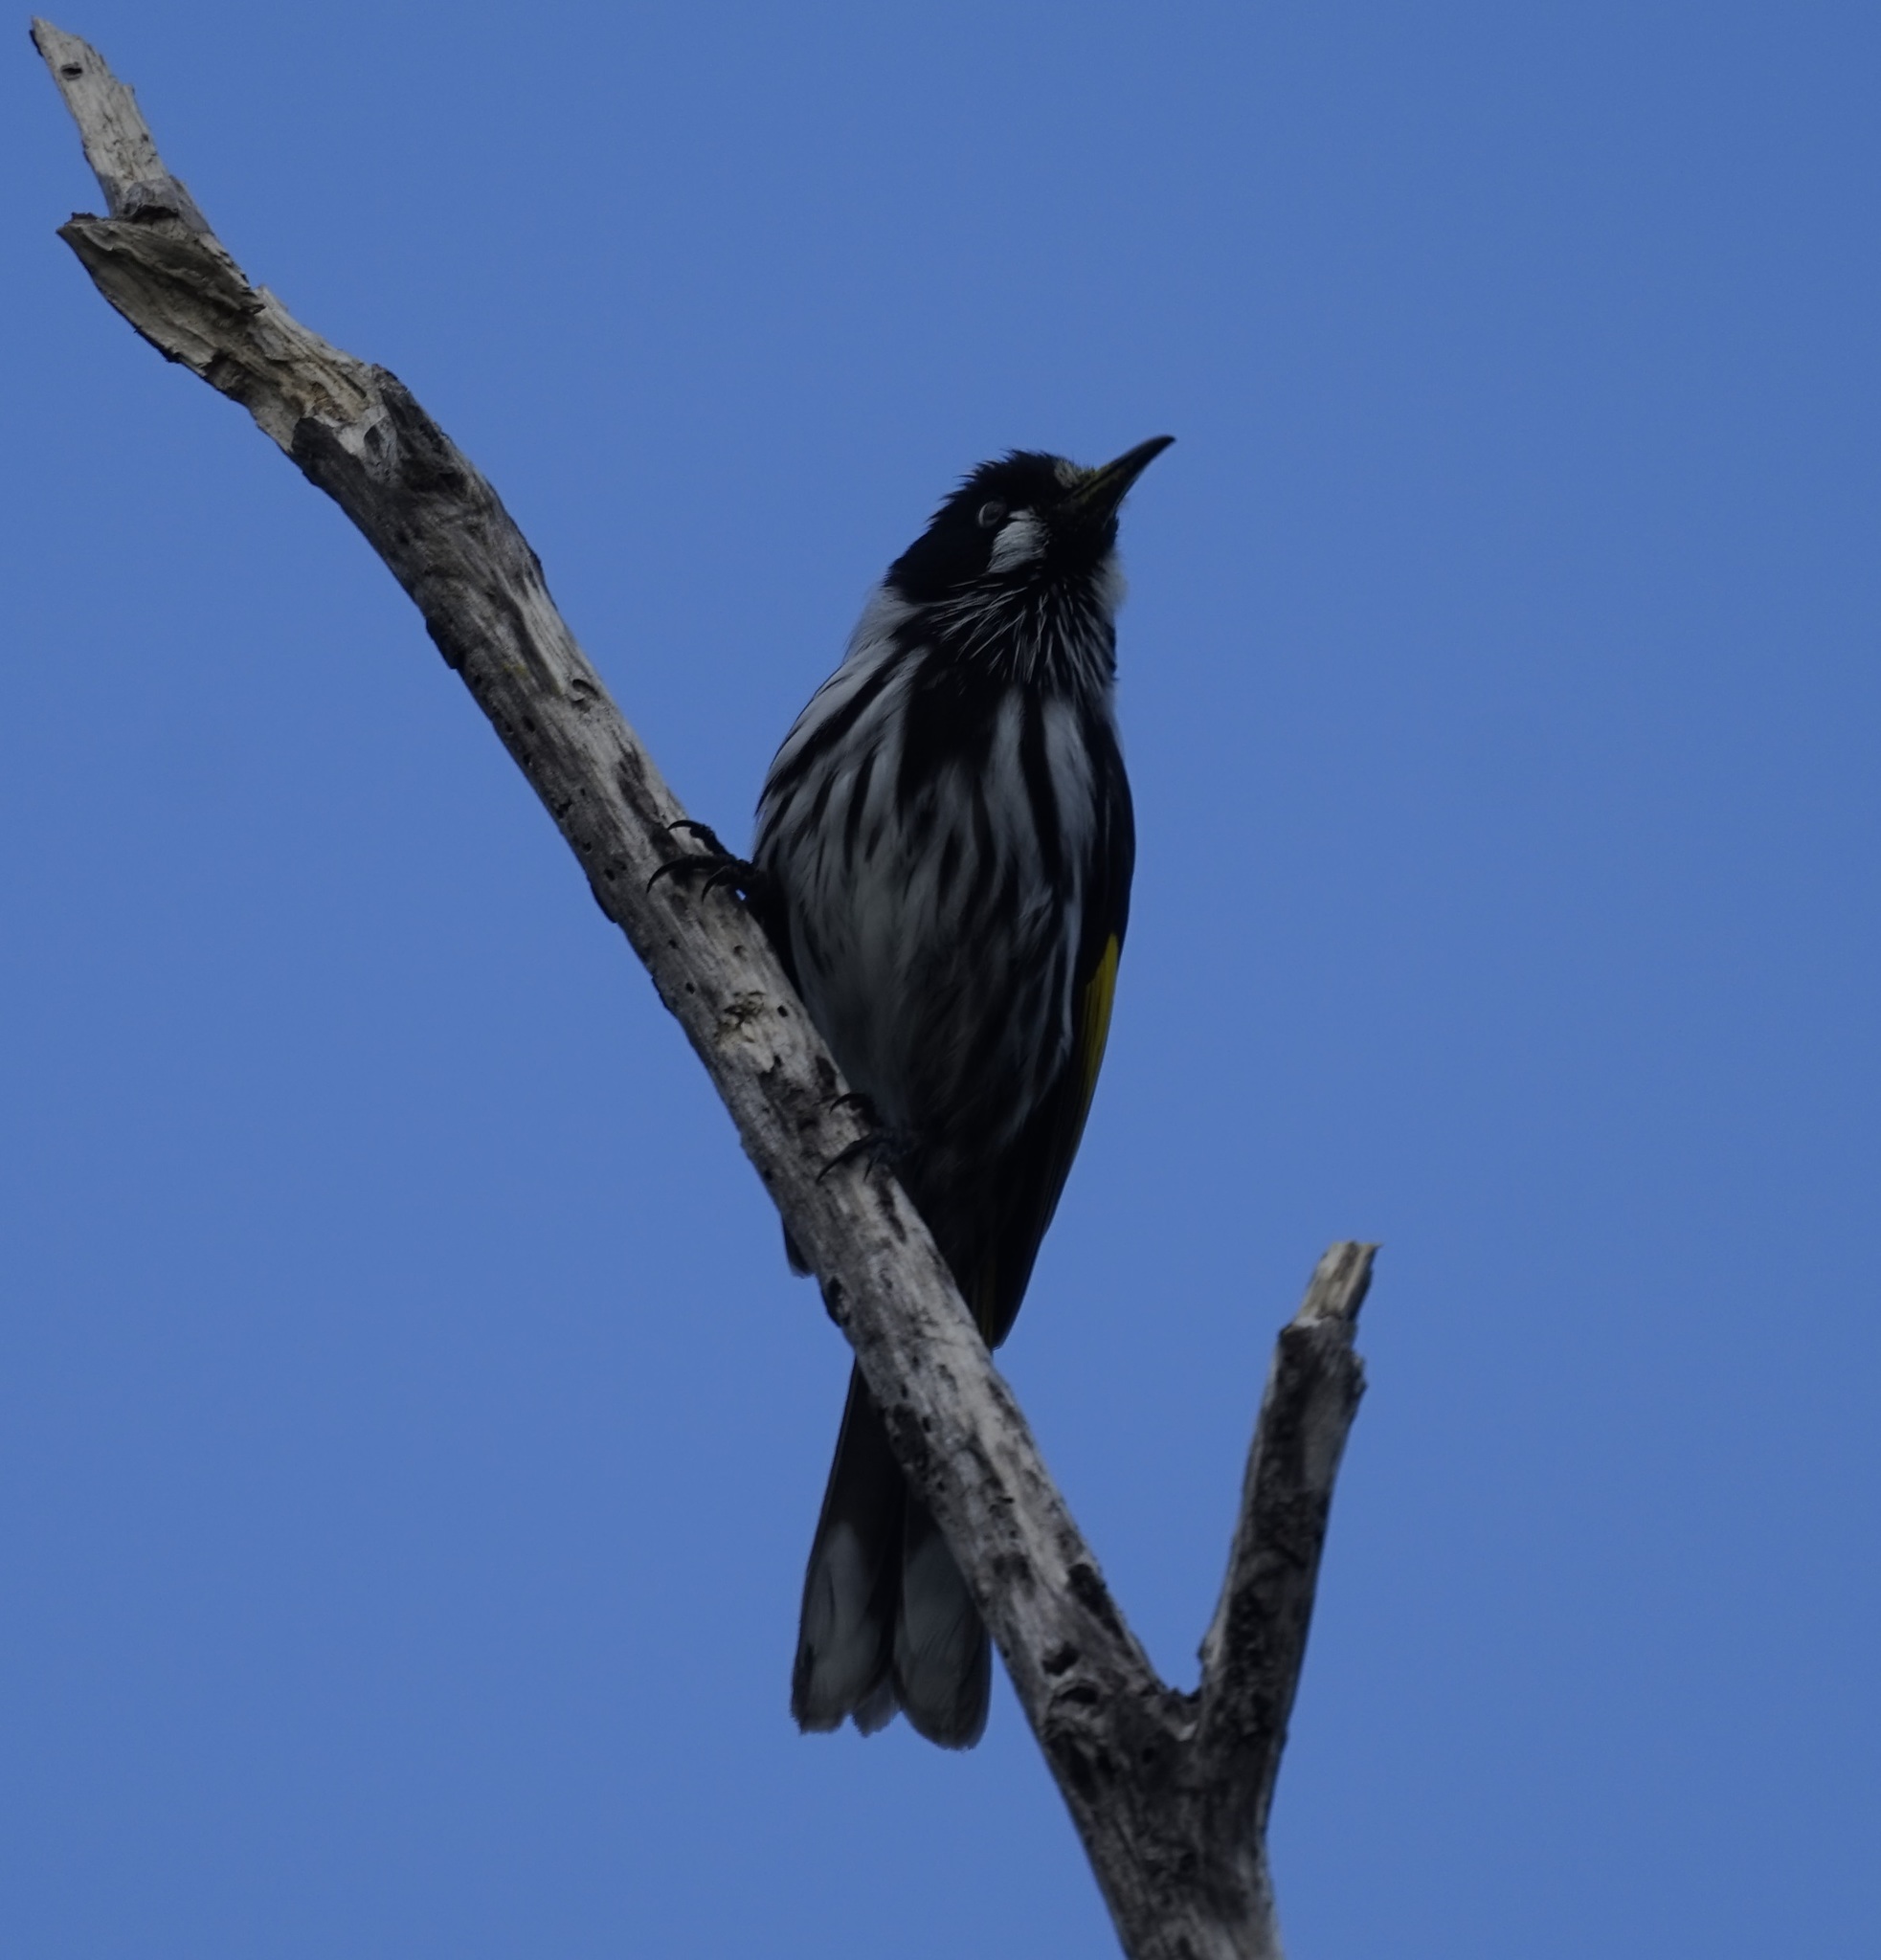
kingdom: Animalia
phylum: Chordata
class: Aves
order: Passeriformes
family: Meliphagidae
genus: Phylidonyris
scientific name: Phylidonyris novaehollandiae
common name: New holland honeyeater
